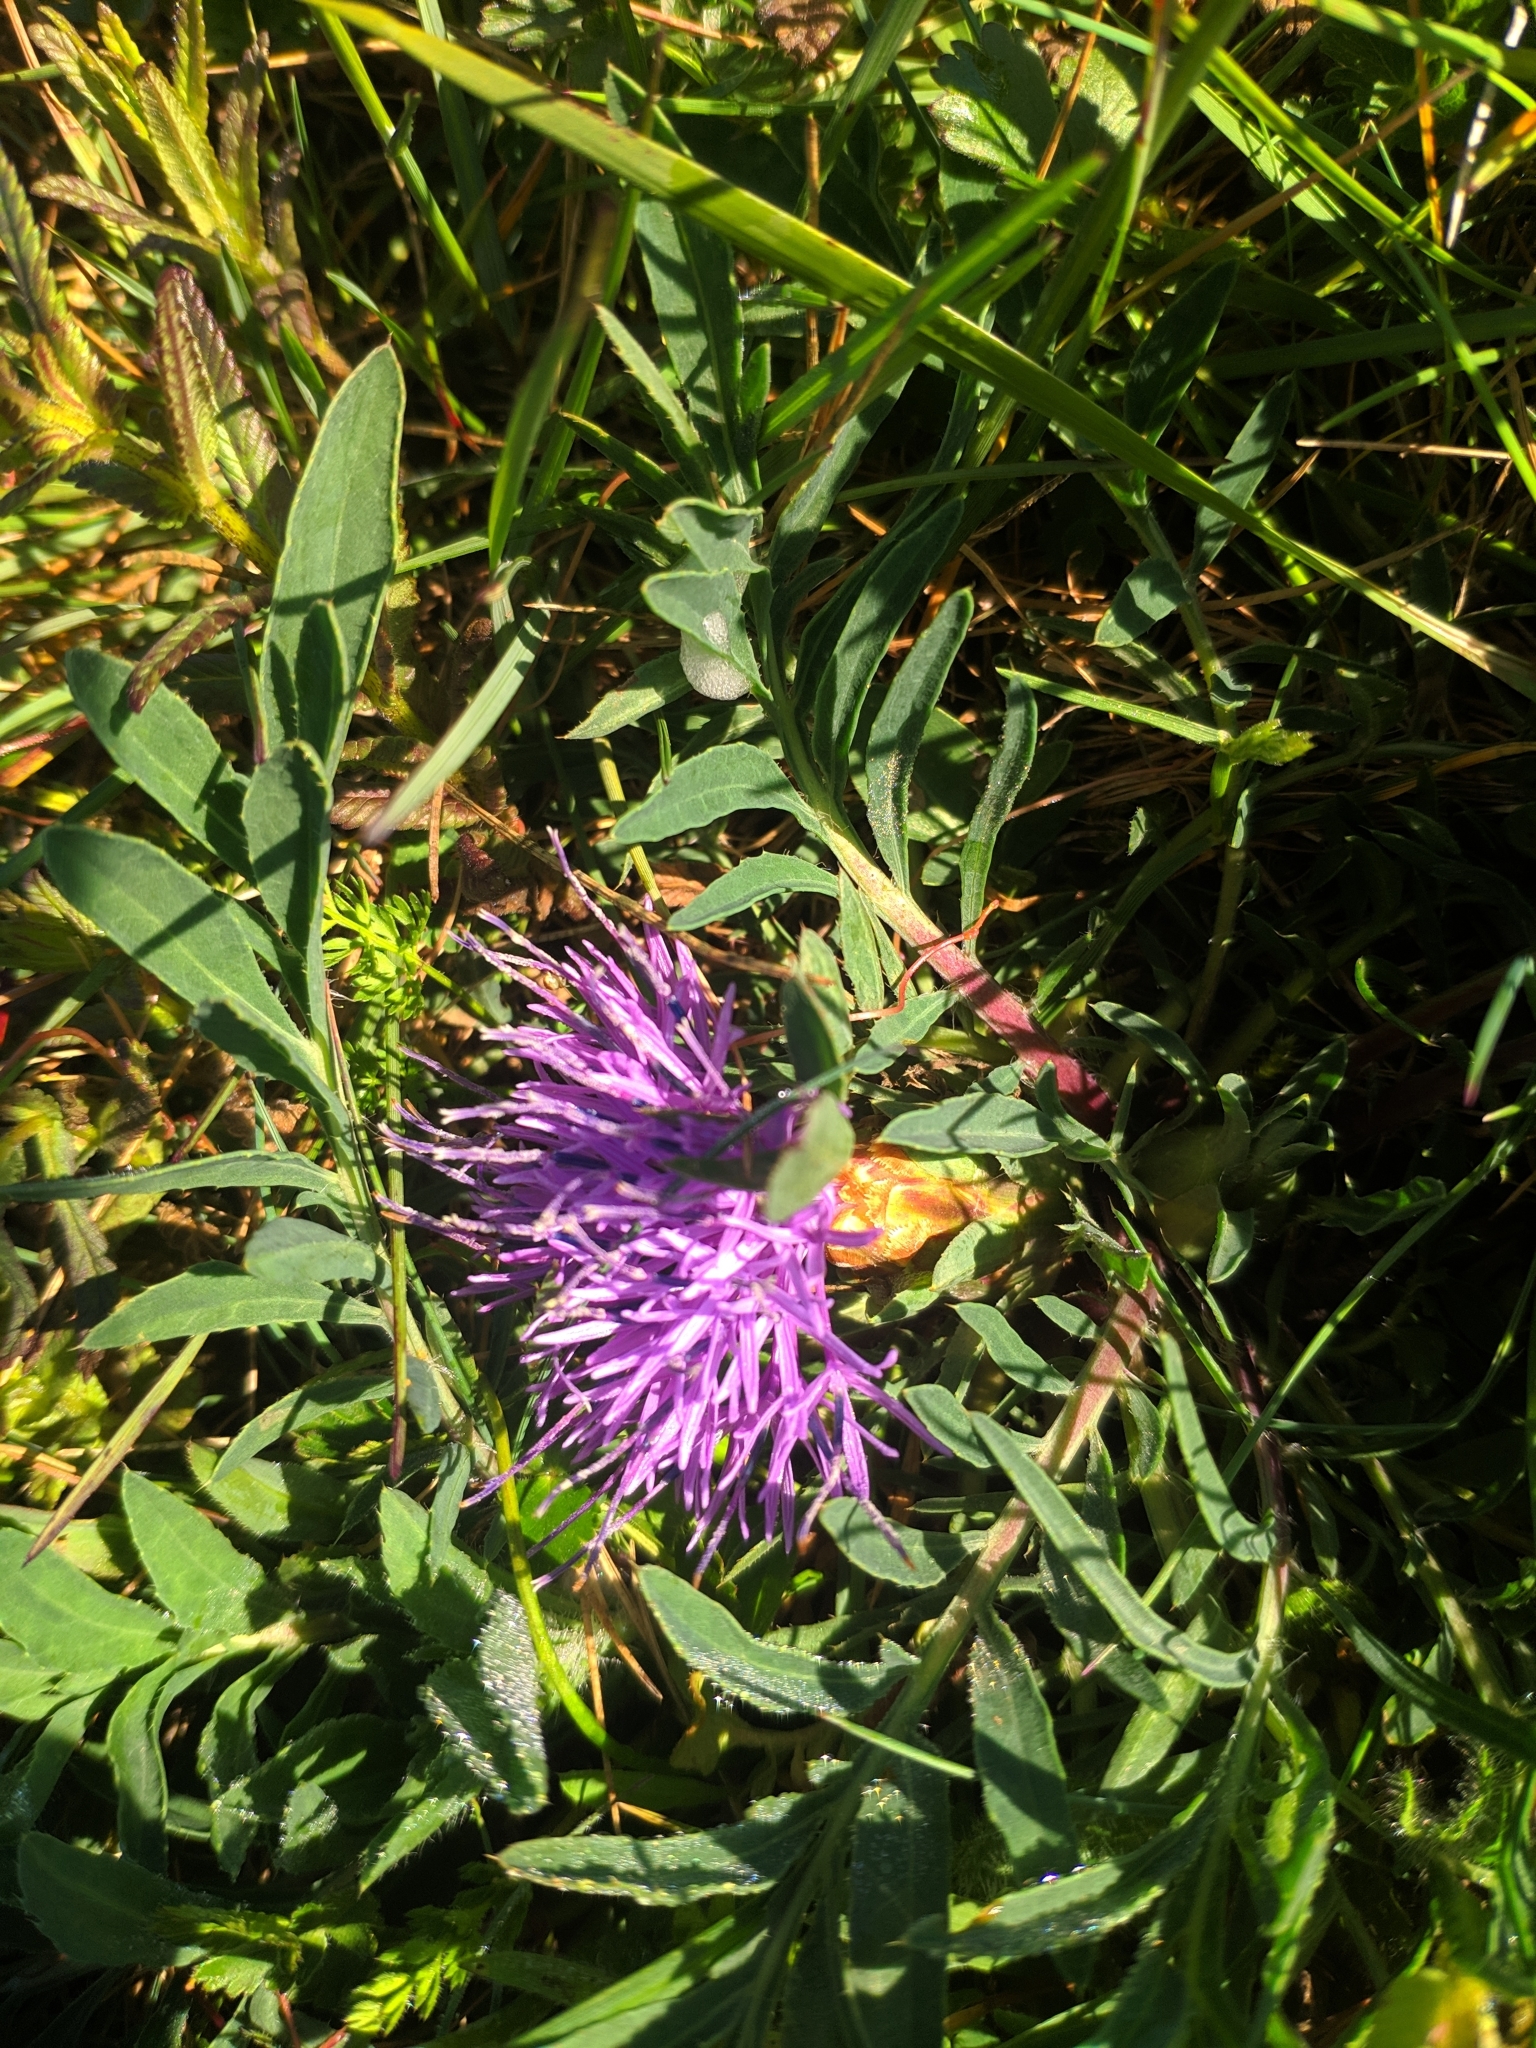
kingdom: Plantae
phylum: Tracheophyta
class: Magnoliopsida
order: Asterales
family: Asteraceae
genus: Carduncellus
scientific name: Carduncellus mitissimus
